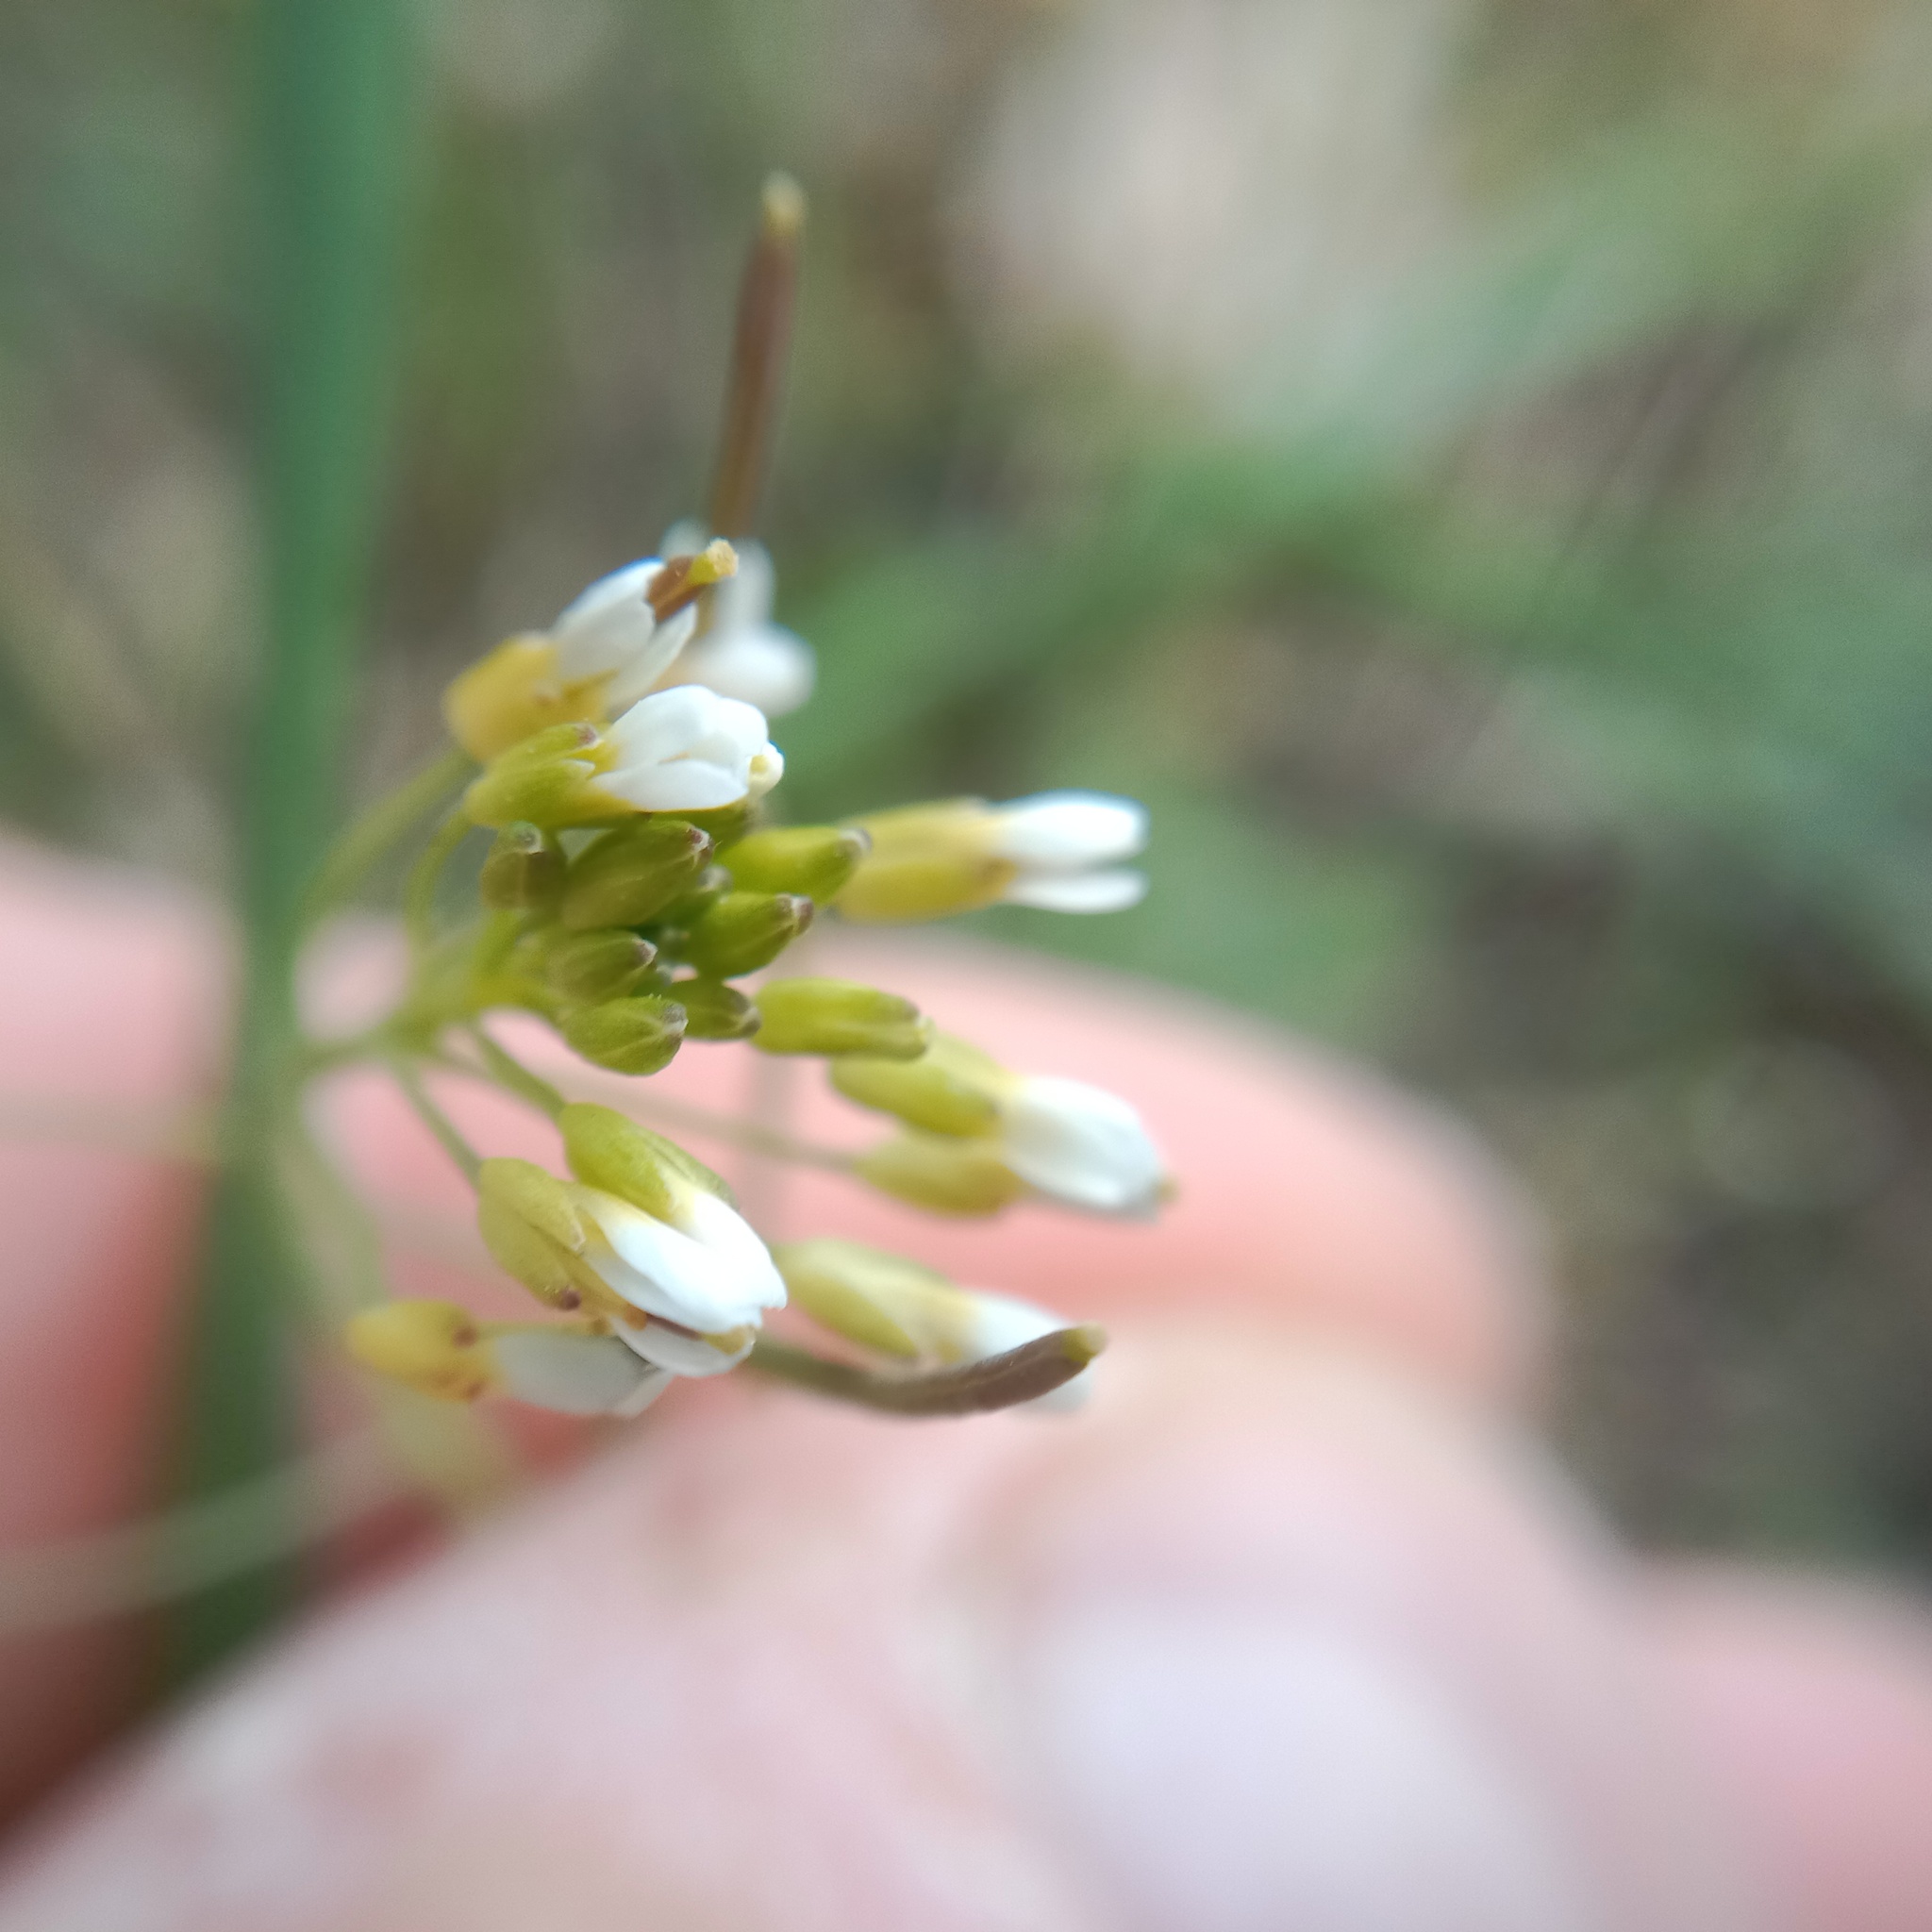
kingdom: Plantae
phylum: Tracheophyta
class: Magnoliopsida
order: Brassicales
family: Brassicaceae
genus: Arabidopsis
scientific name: Arabidopsis thaliana
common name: Thale cress
